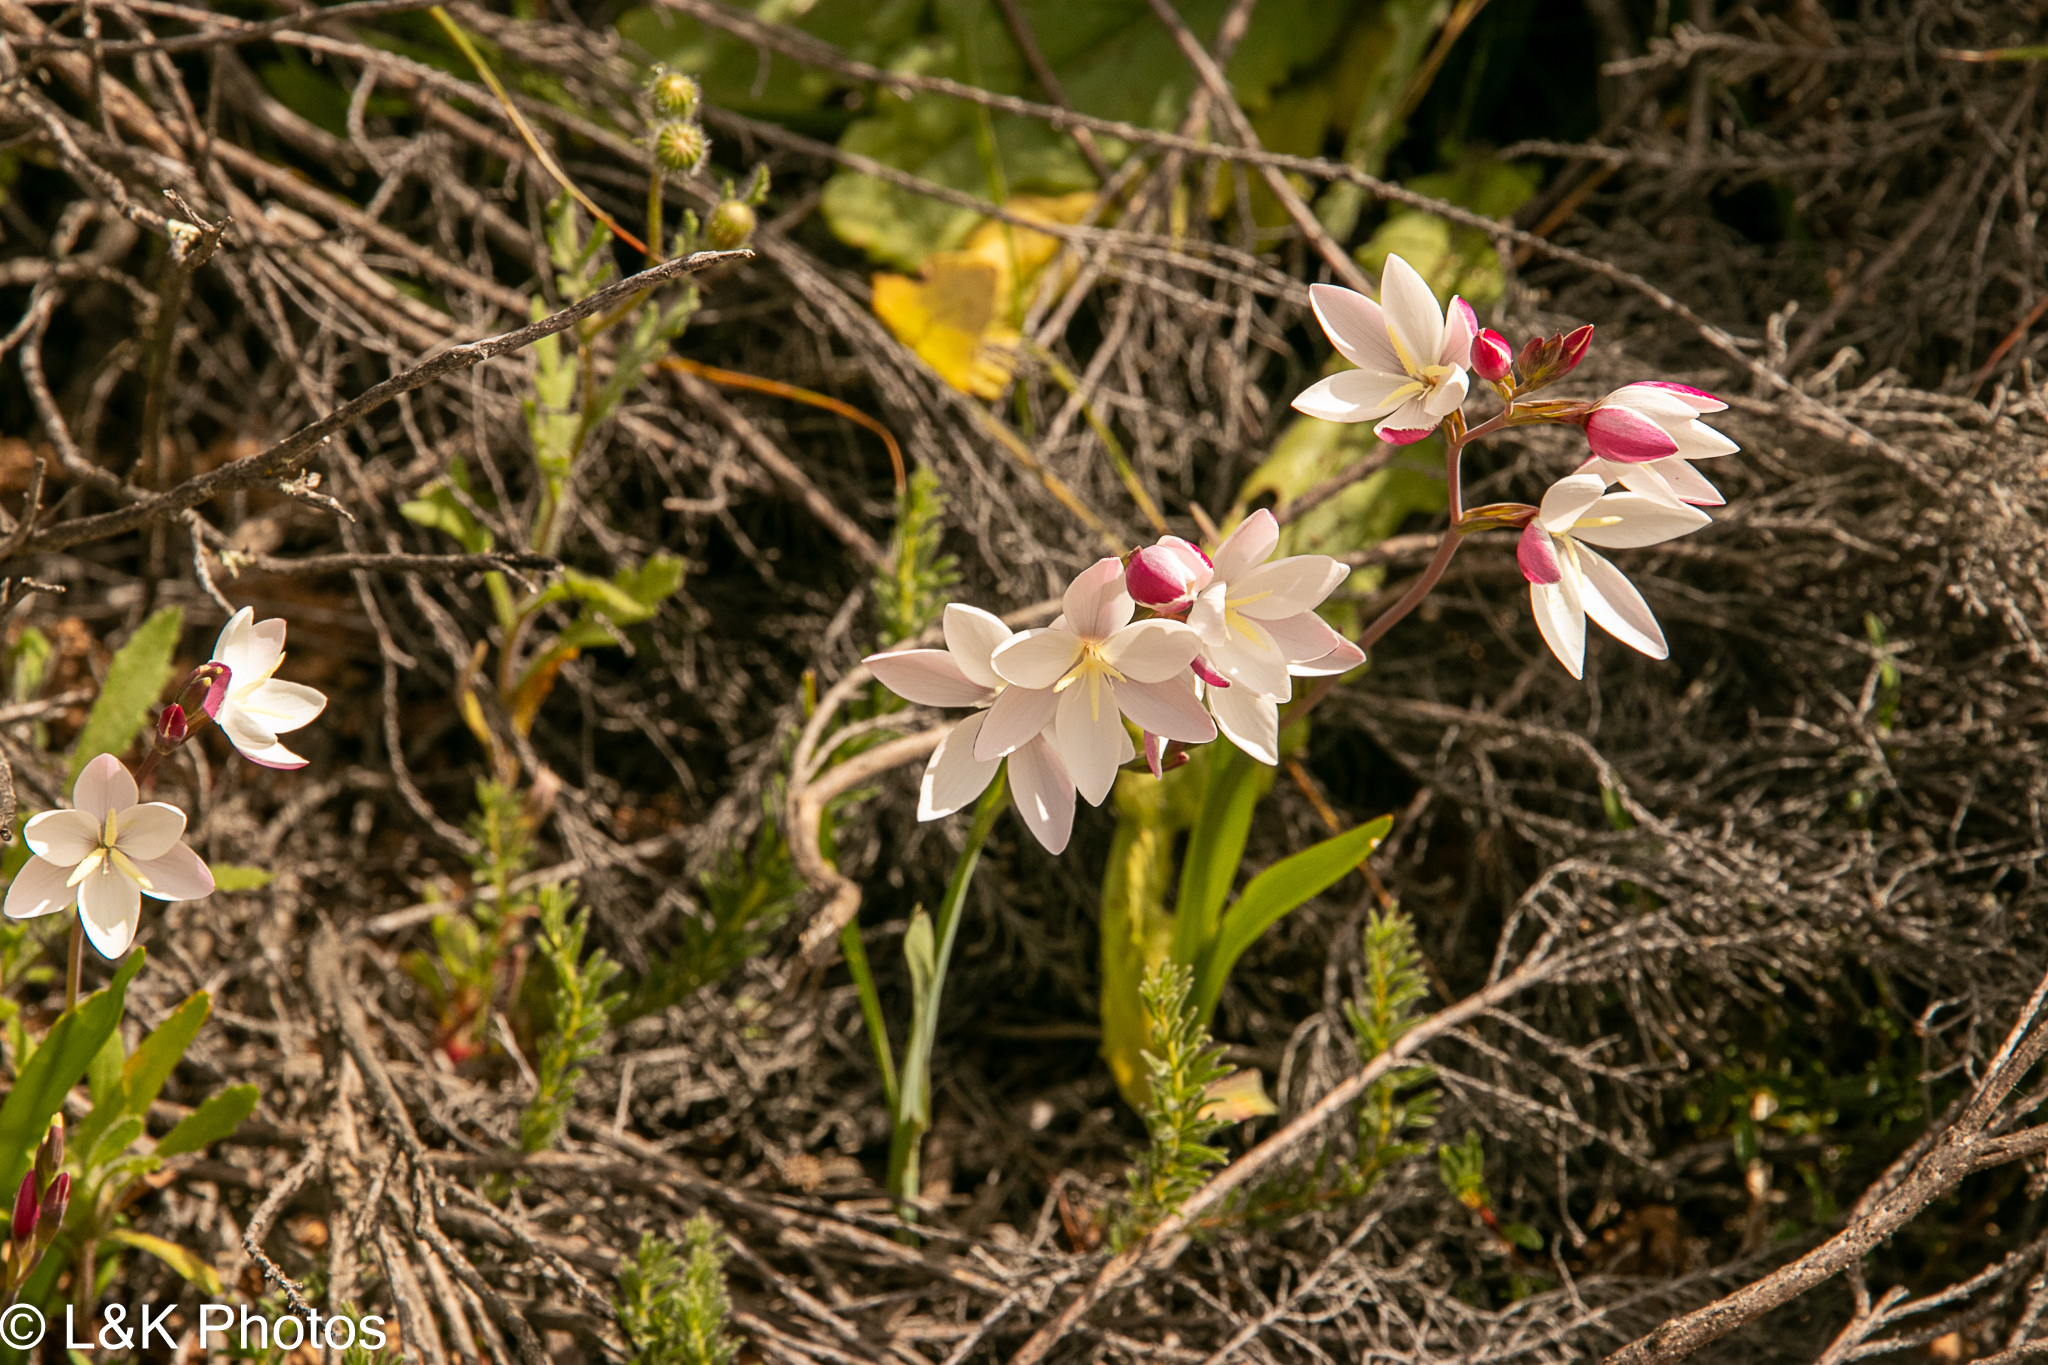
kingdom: Plantae
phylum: Tracheophyta
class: Liliopsida
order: Asparagales
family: Iridaceae
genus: Hesperantha
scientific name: Hesperantha cucullata
